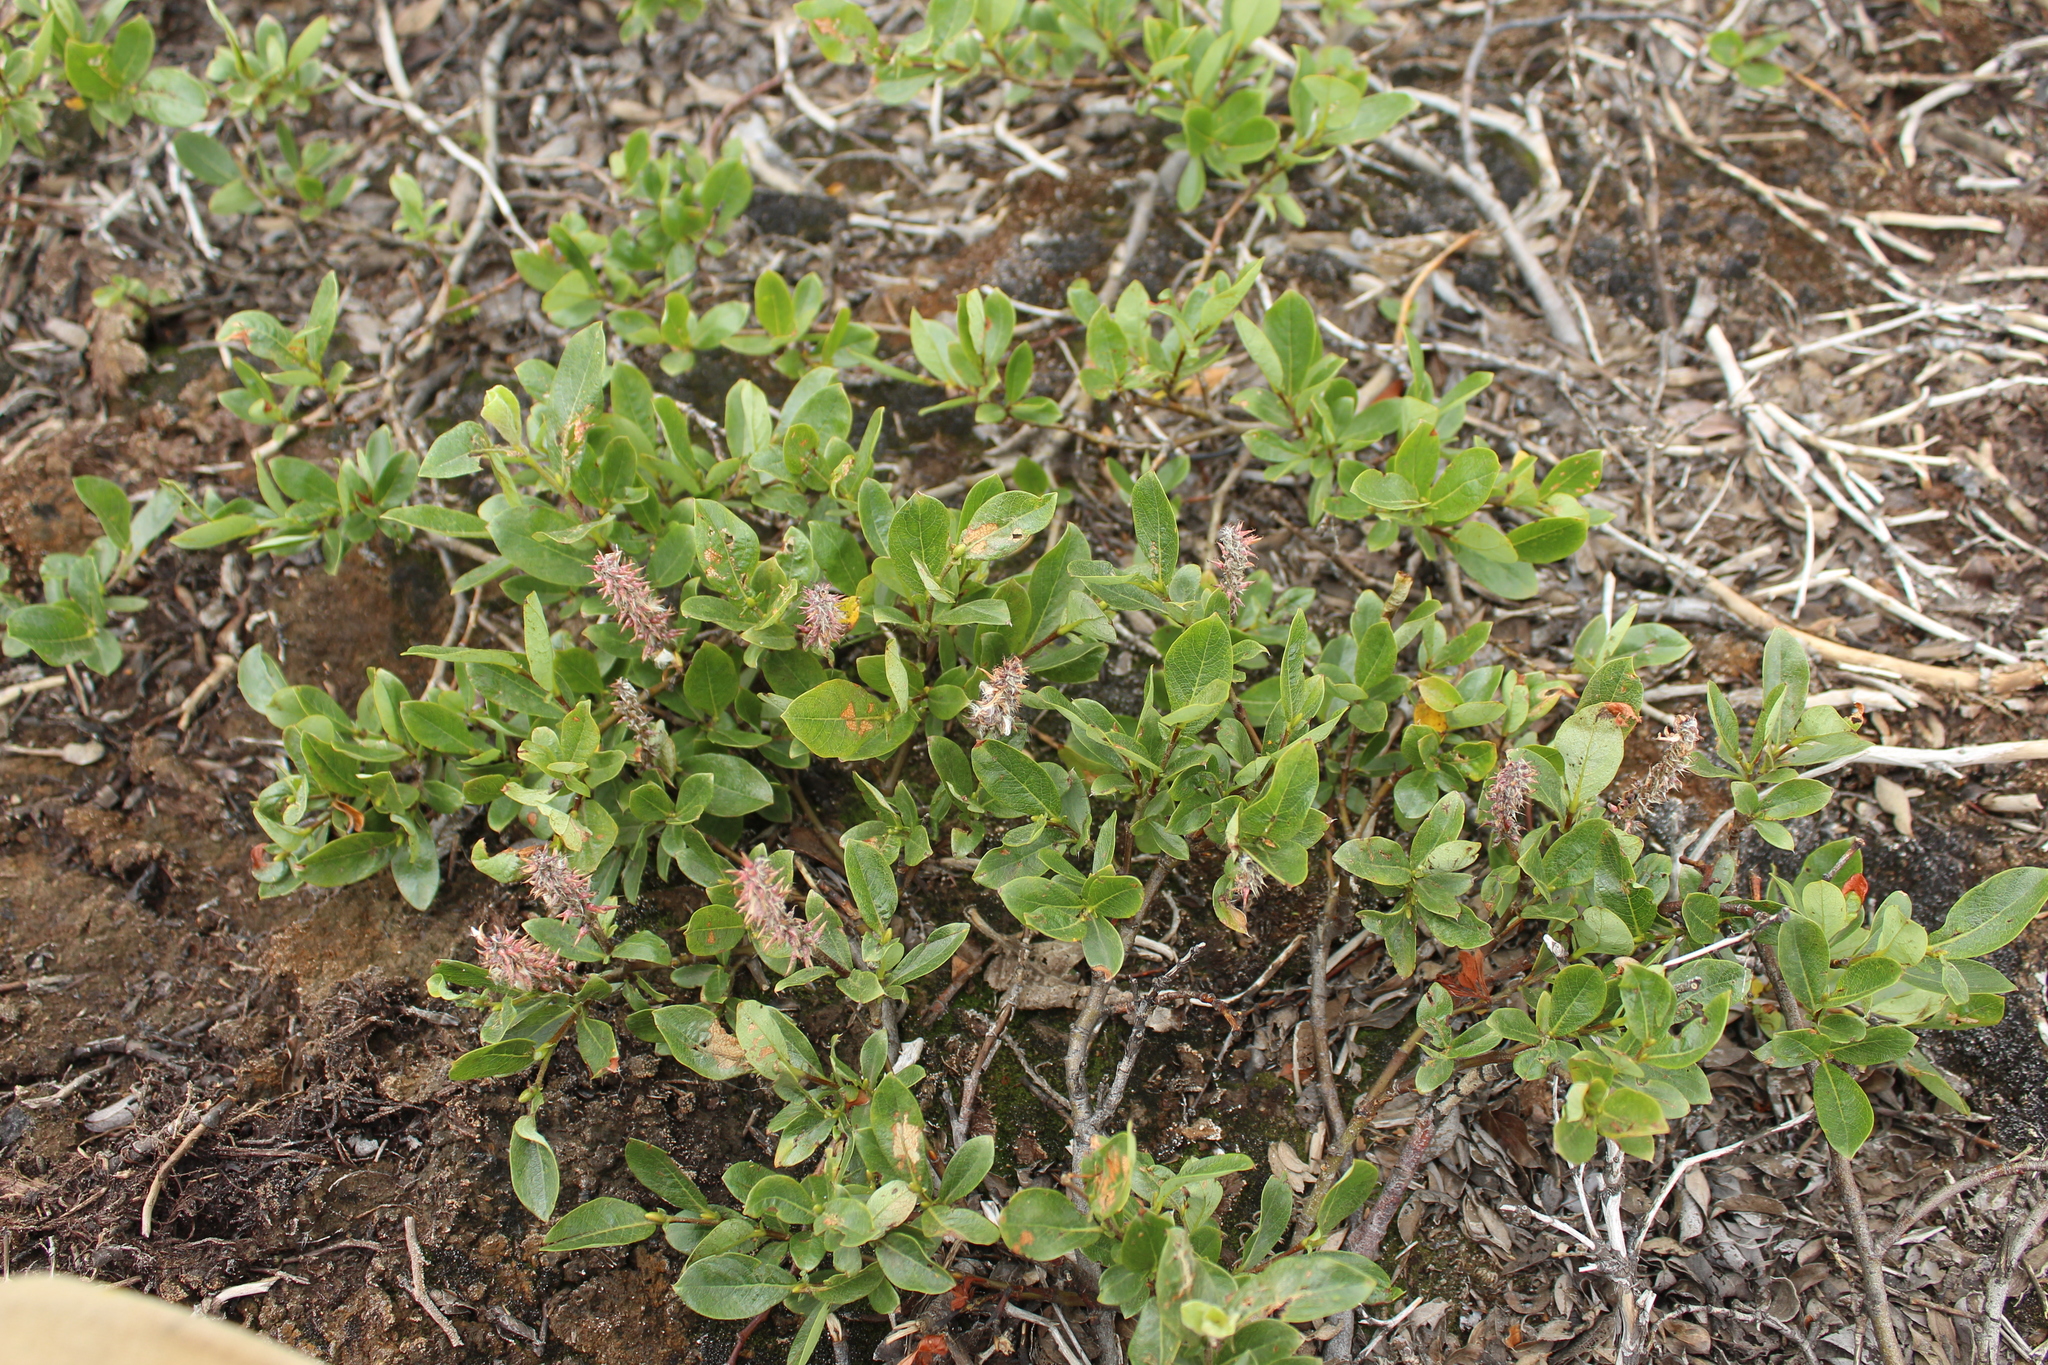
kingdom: Plantae
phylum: Tracheophyta
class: Magnoliopsida
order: Malpighiales
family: Salicaceae
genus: Salix
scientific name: Salix saxatilis
